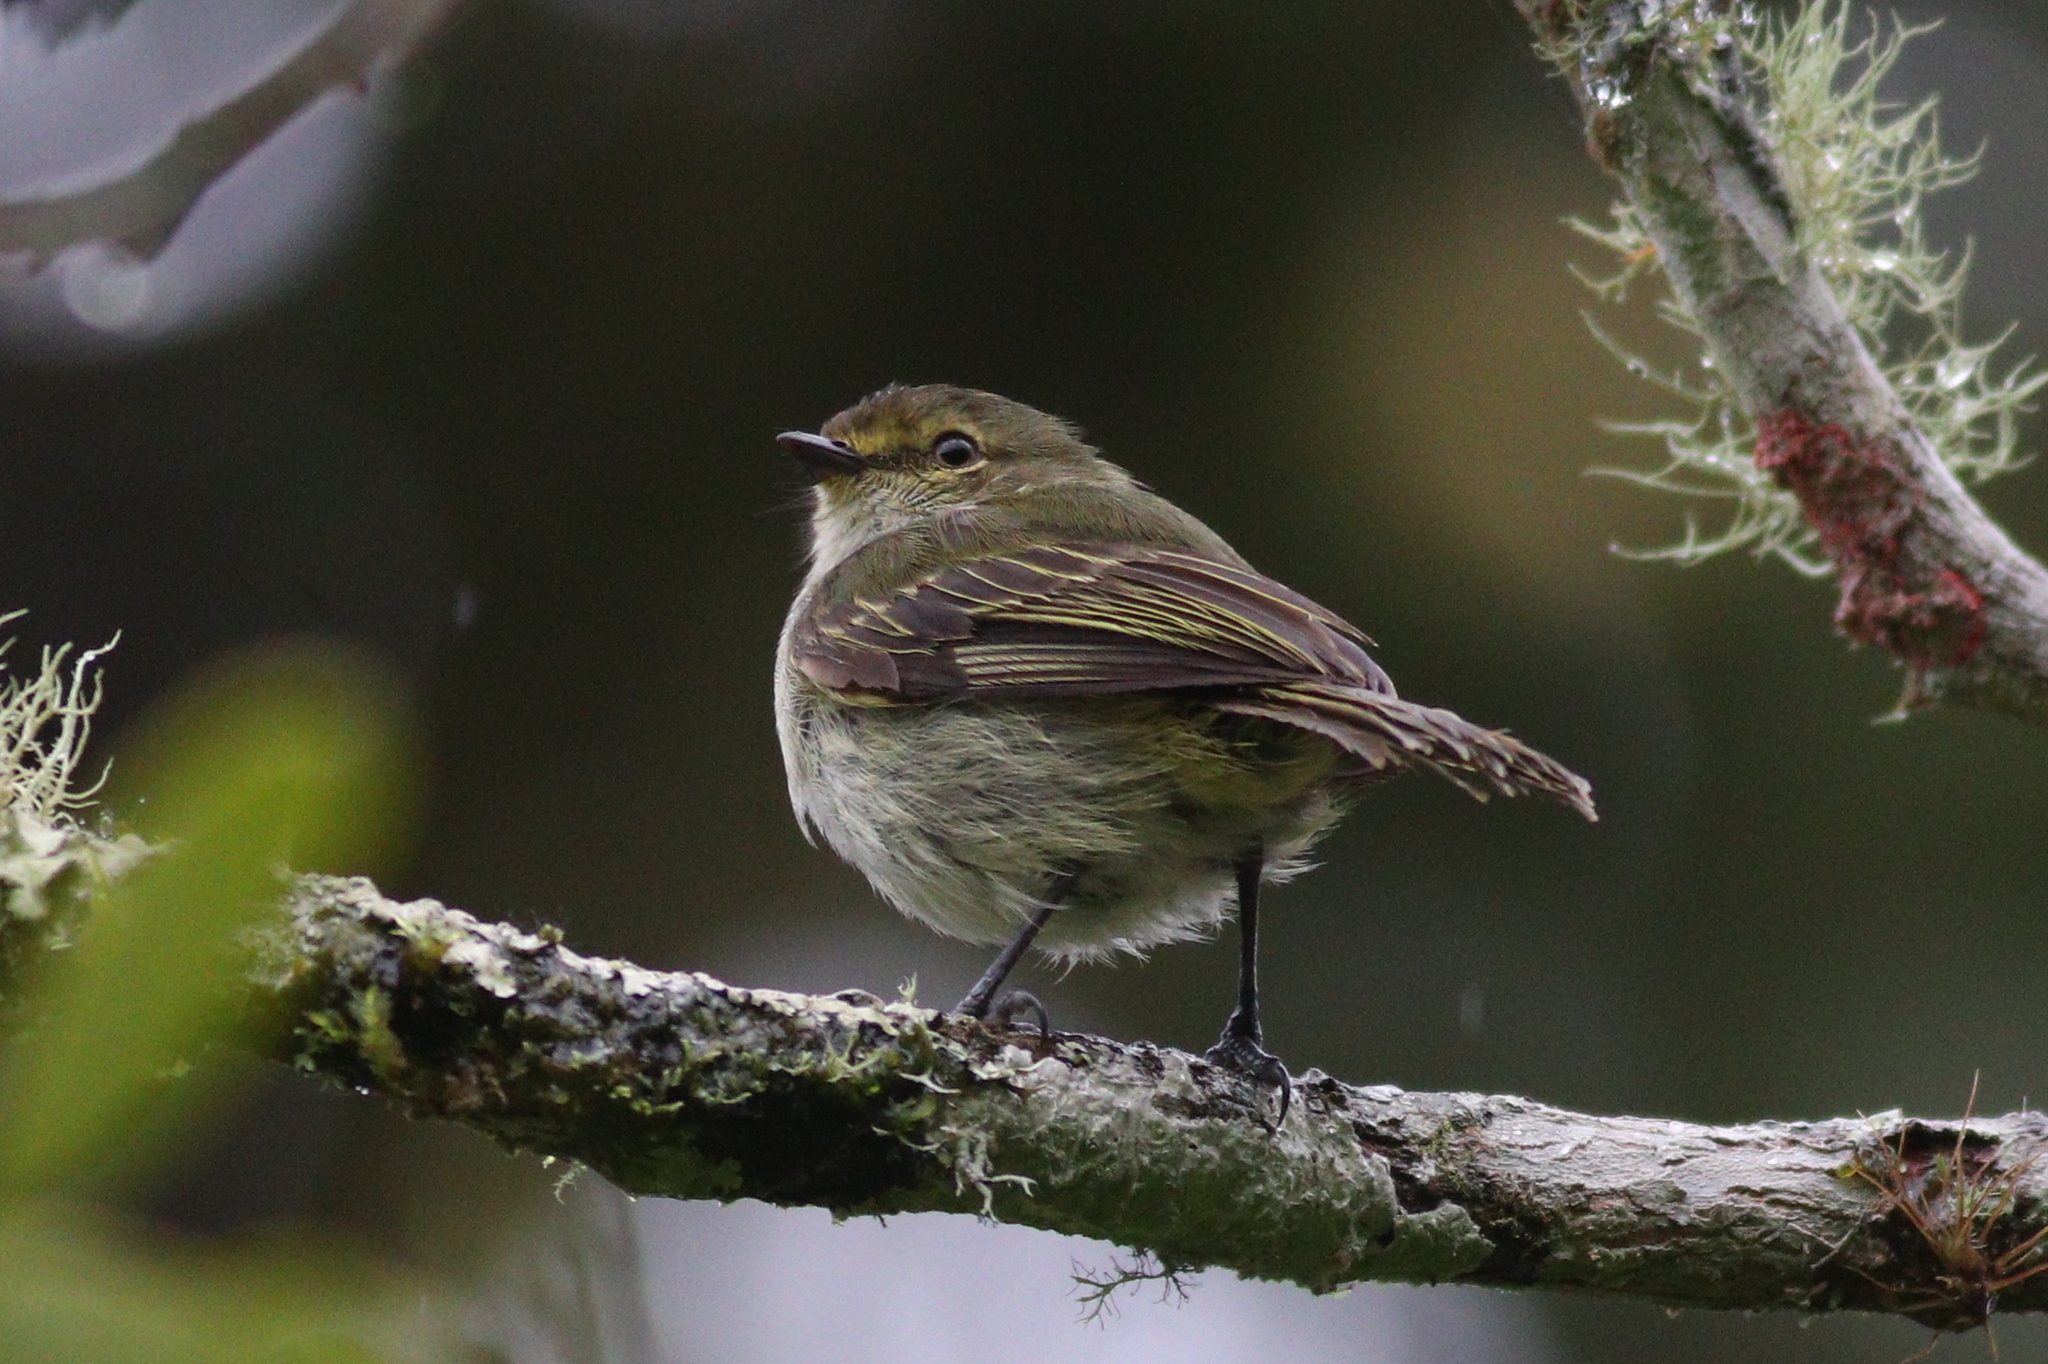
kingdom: Animalia
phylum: Chordata
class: Aves
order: Passeriformes
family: Tyrannidae
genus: Zimmerius
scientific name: Zimmerius chrysops
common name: Golden-faced tyrannulet
